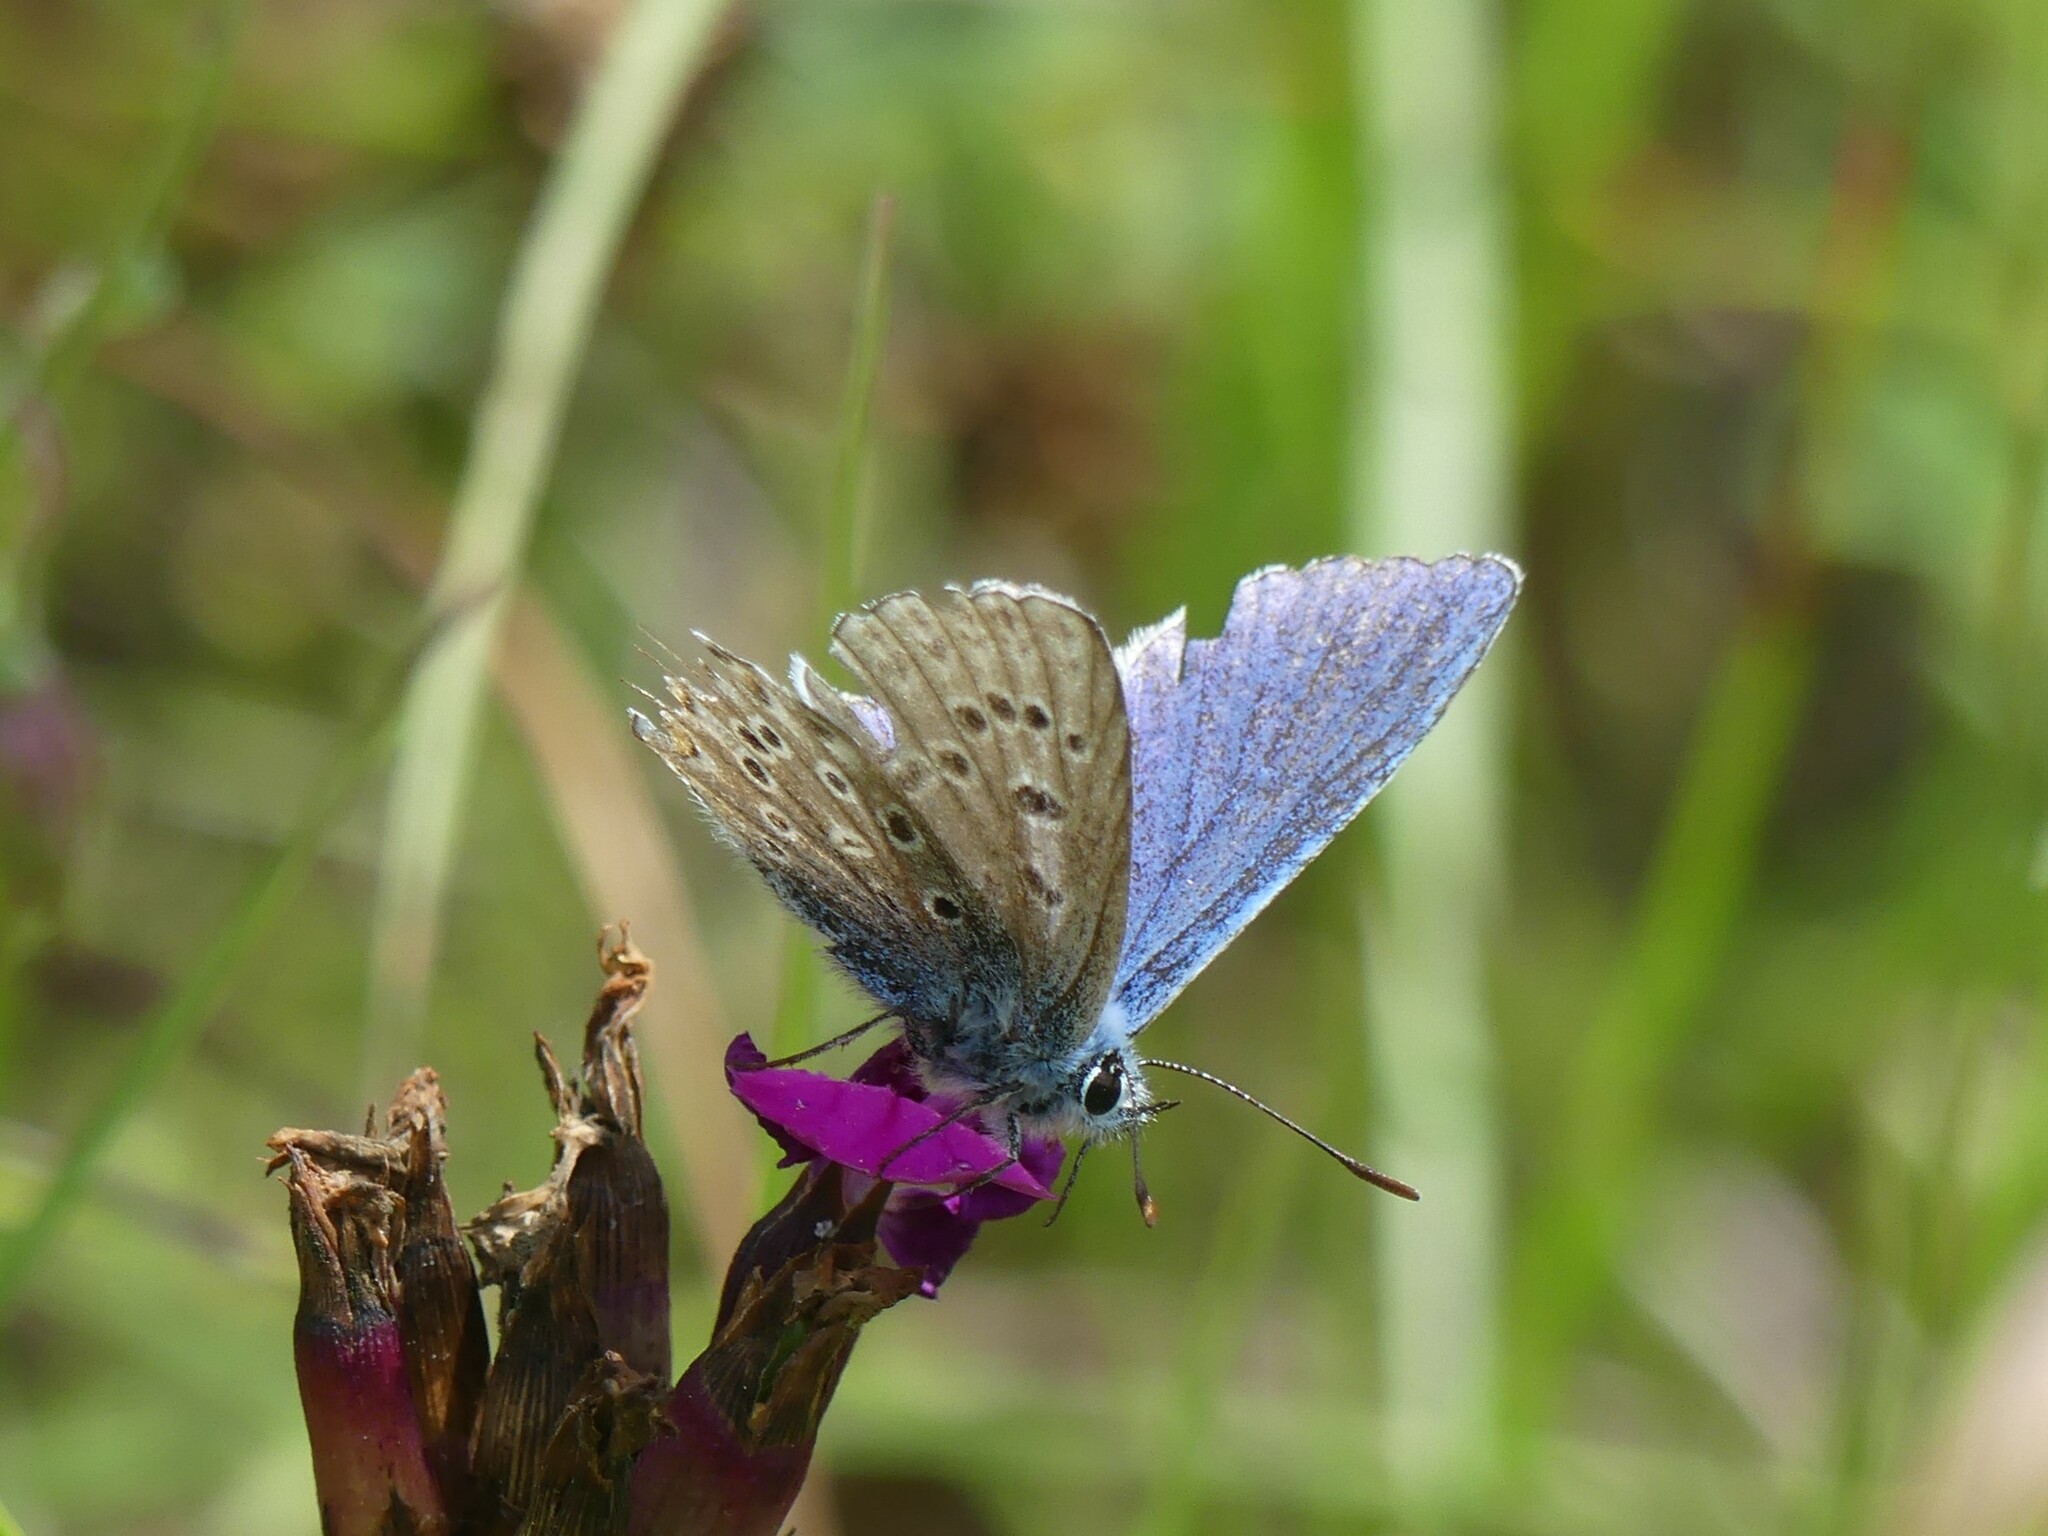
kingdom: Animalia
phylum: Arthropoda
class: Insecta
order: Lepidoptera
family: Lycaenidae
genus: Polyommatus
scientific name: Polyommatus icarus
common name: Common blue
